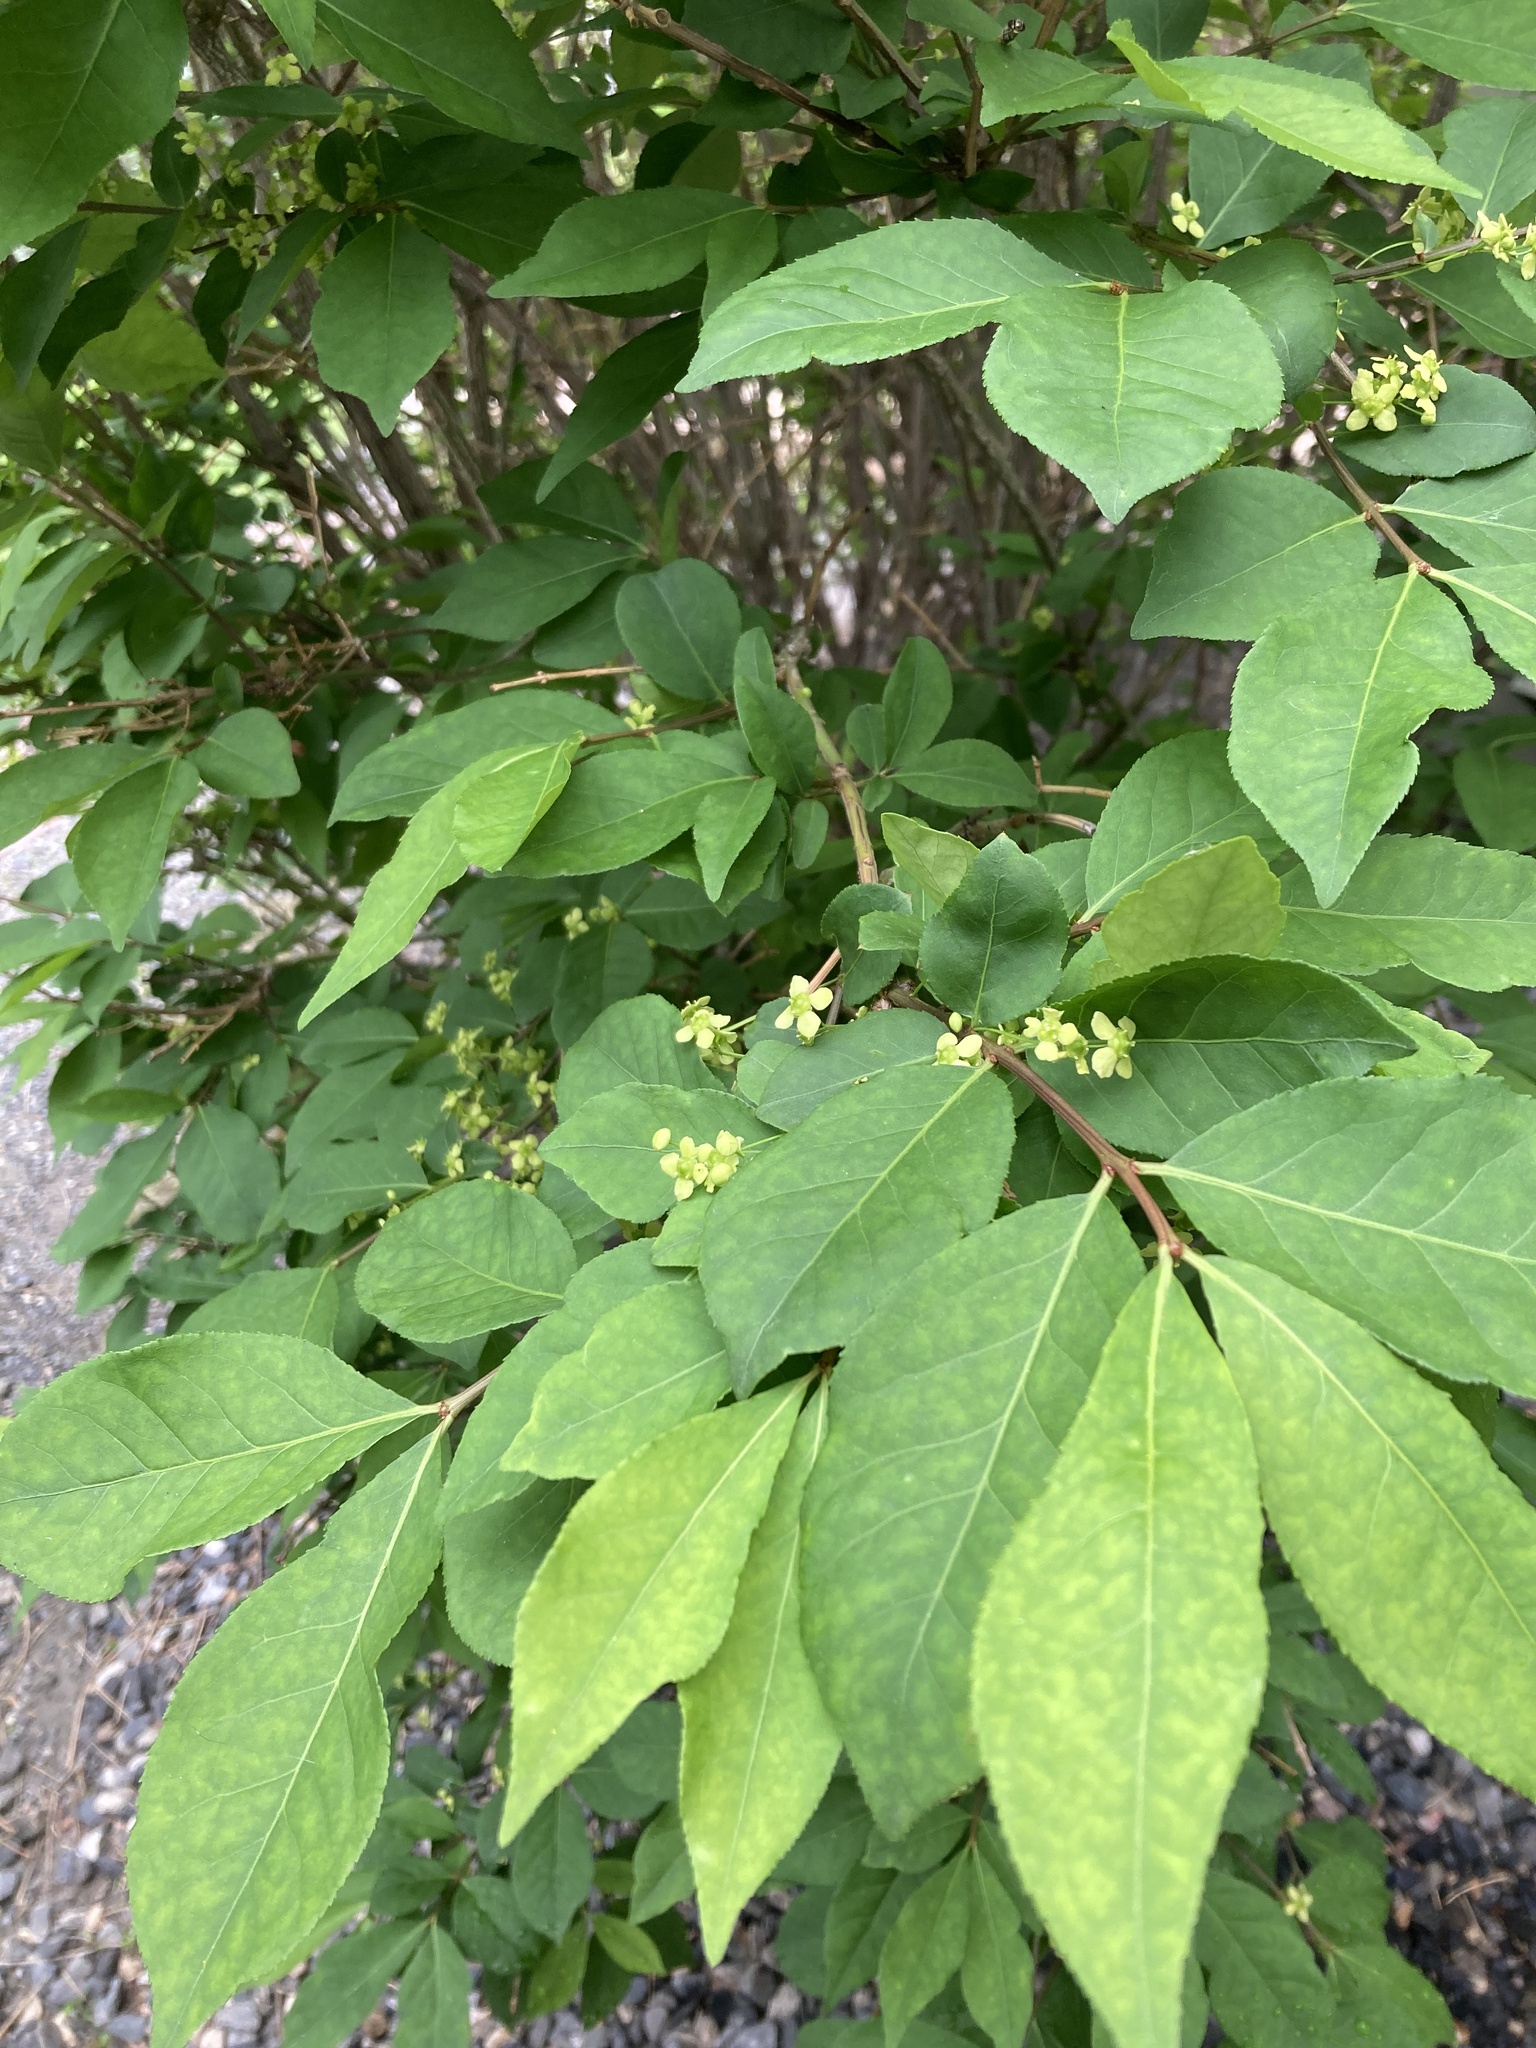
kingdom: Plantae
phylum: Tracheophyta
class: Magnoliopsida
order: Celastrales
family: Celastraceae
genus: Euonymus
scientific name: Euonymus alatus
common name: Winged euonymus
